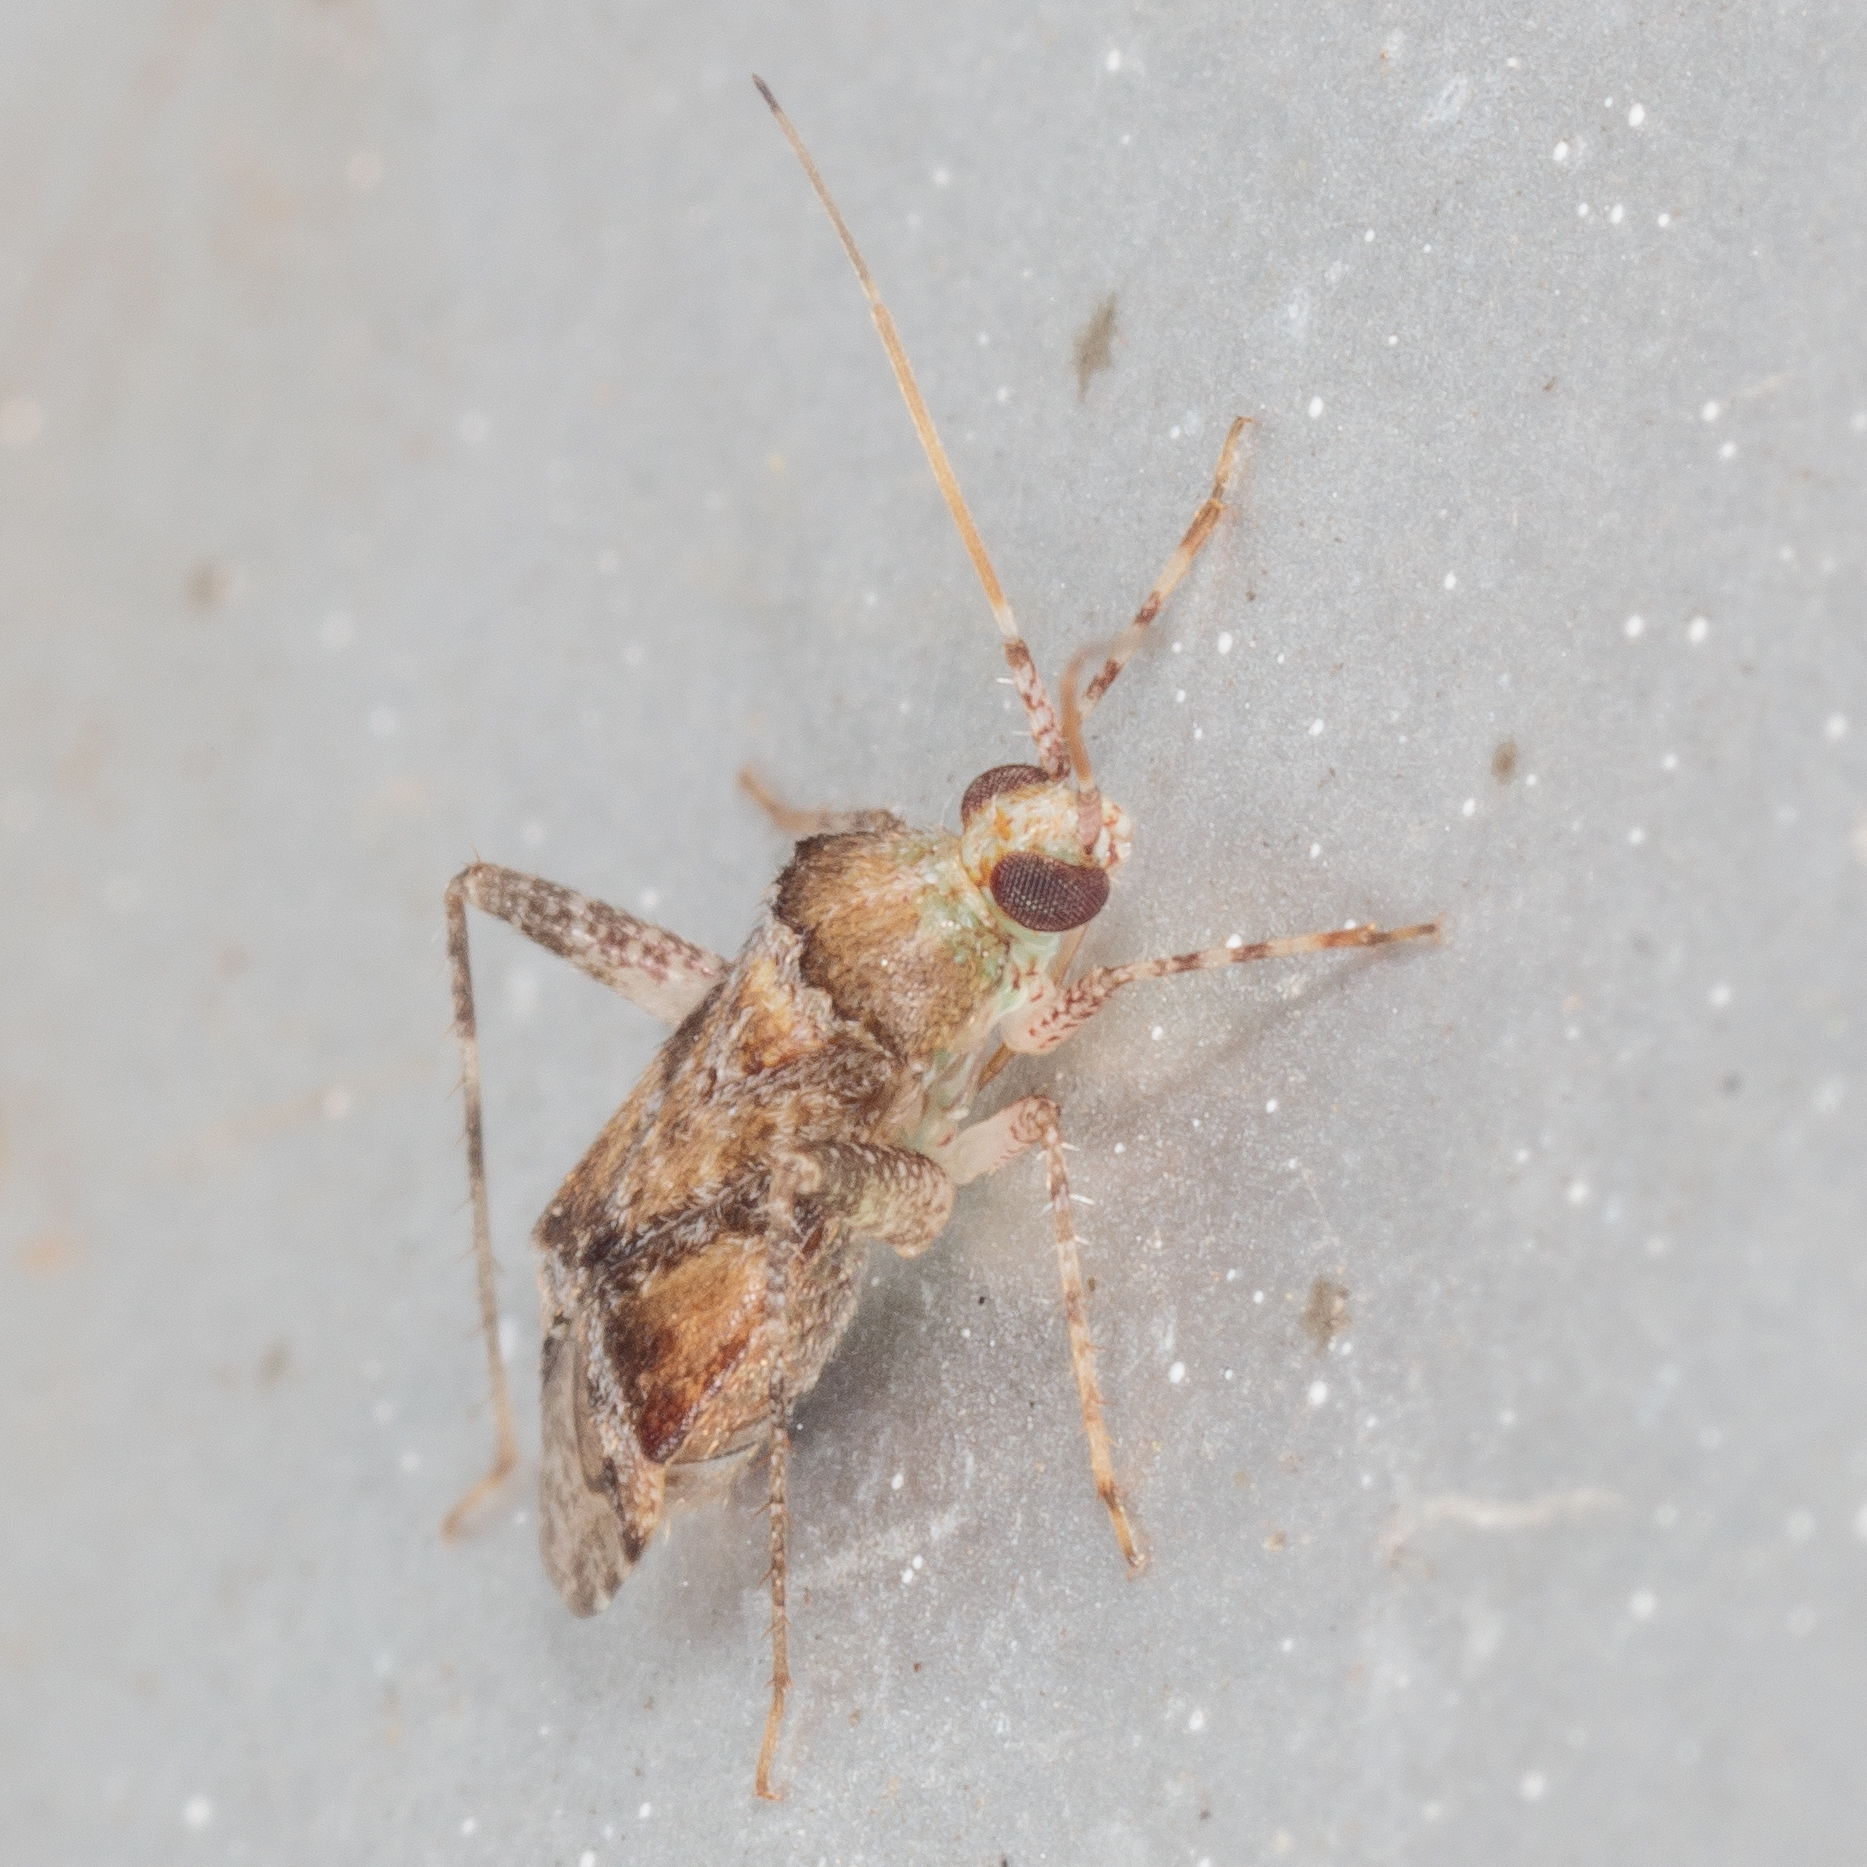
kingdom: Animalia
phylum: Arthropoda
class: Insecta
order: Hemiptera
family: Miridae
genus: Phytocoris
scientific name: Phytocoris breviusculus
